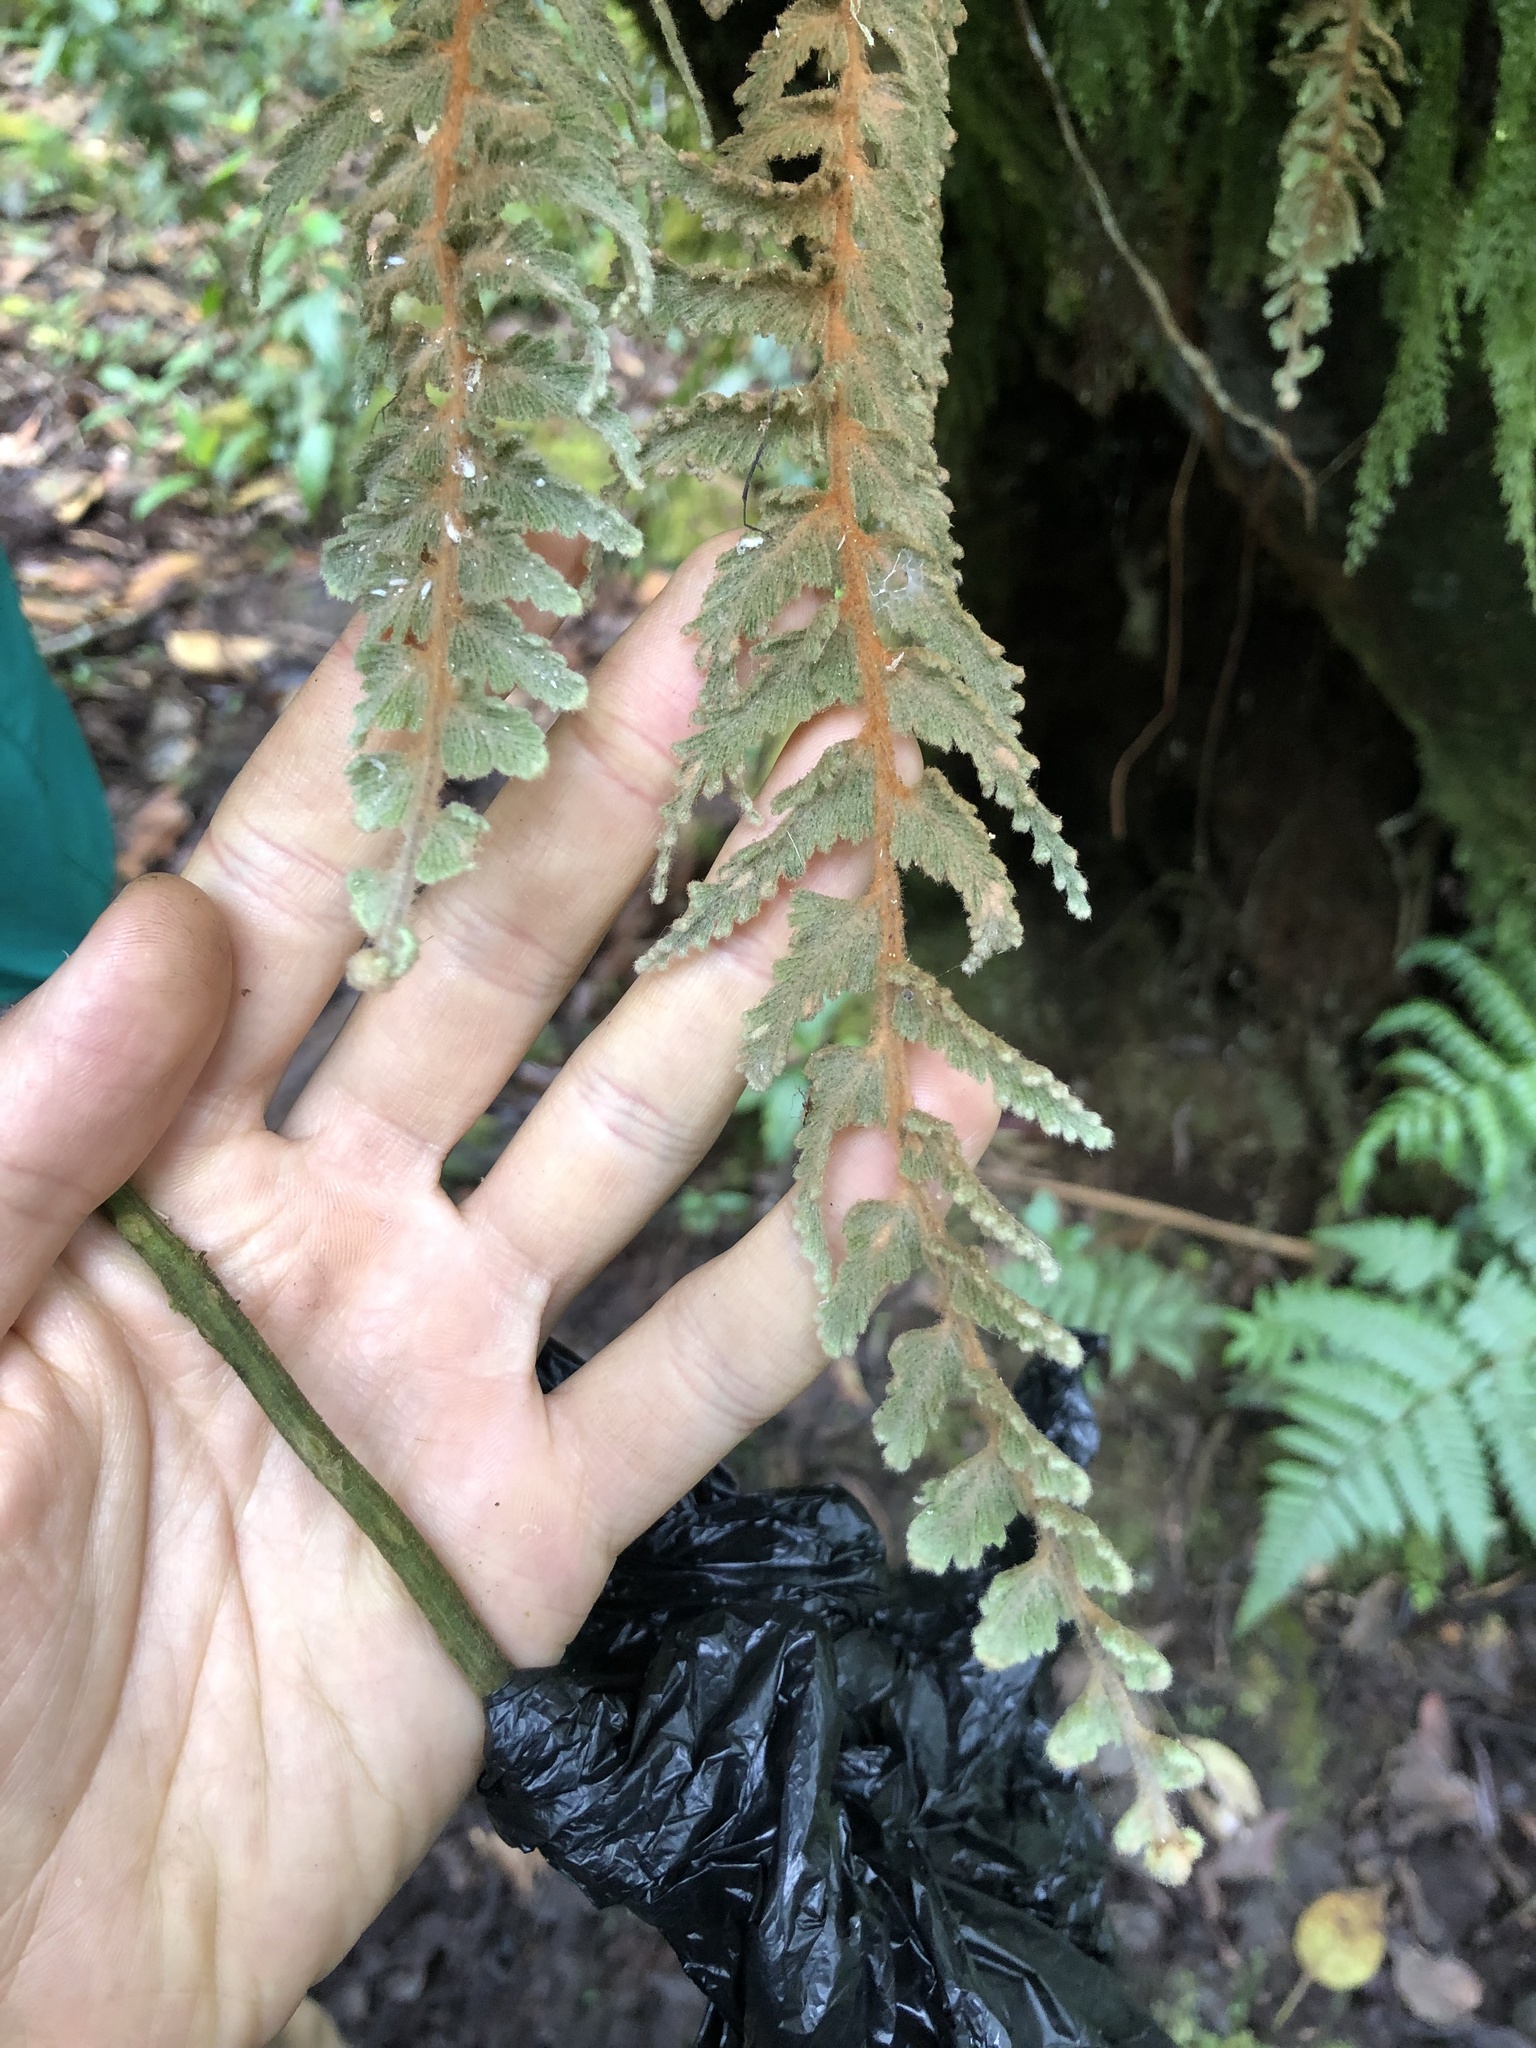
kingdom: Plantae
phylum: Tracheophyta
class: Polypodiopsida
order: Hymenophyllales
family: Hymenophyllaceae
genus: Hymenophyllum
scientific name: Hymenophyllum tomentosum
